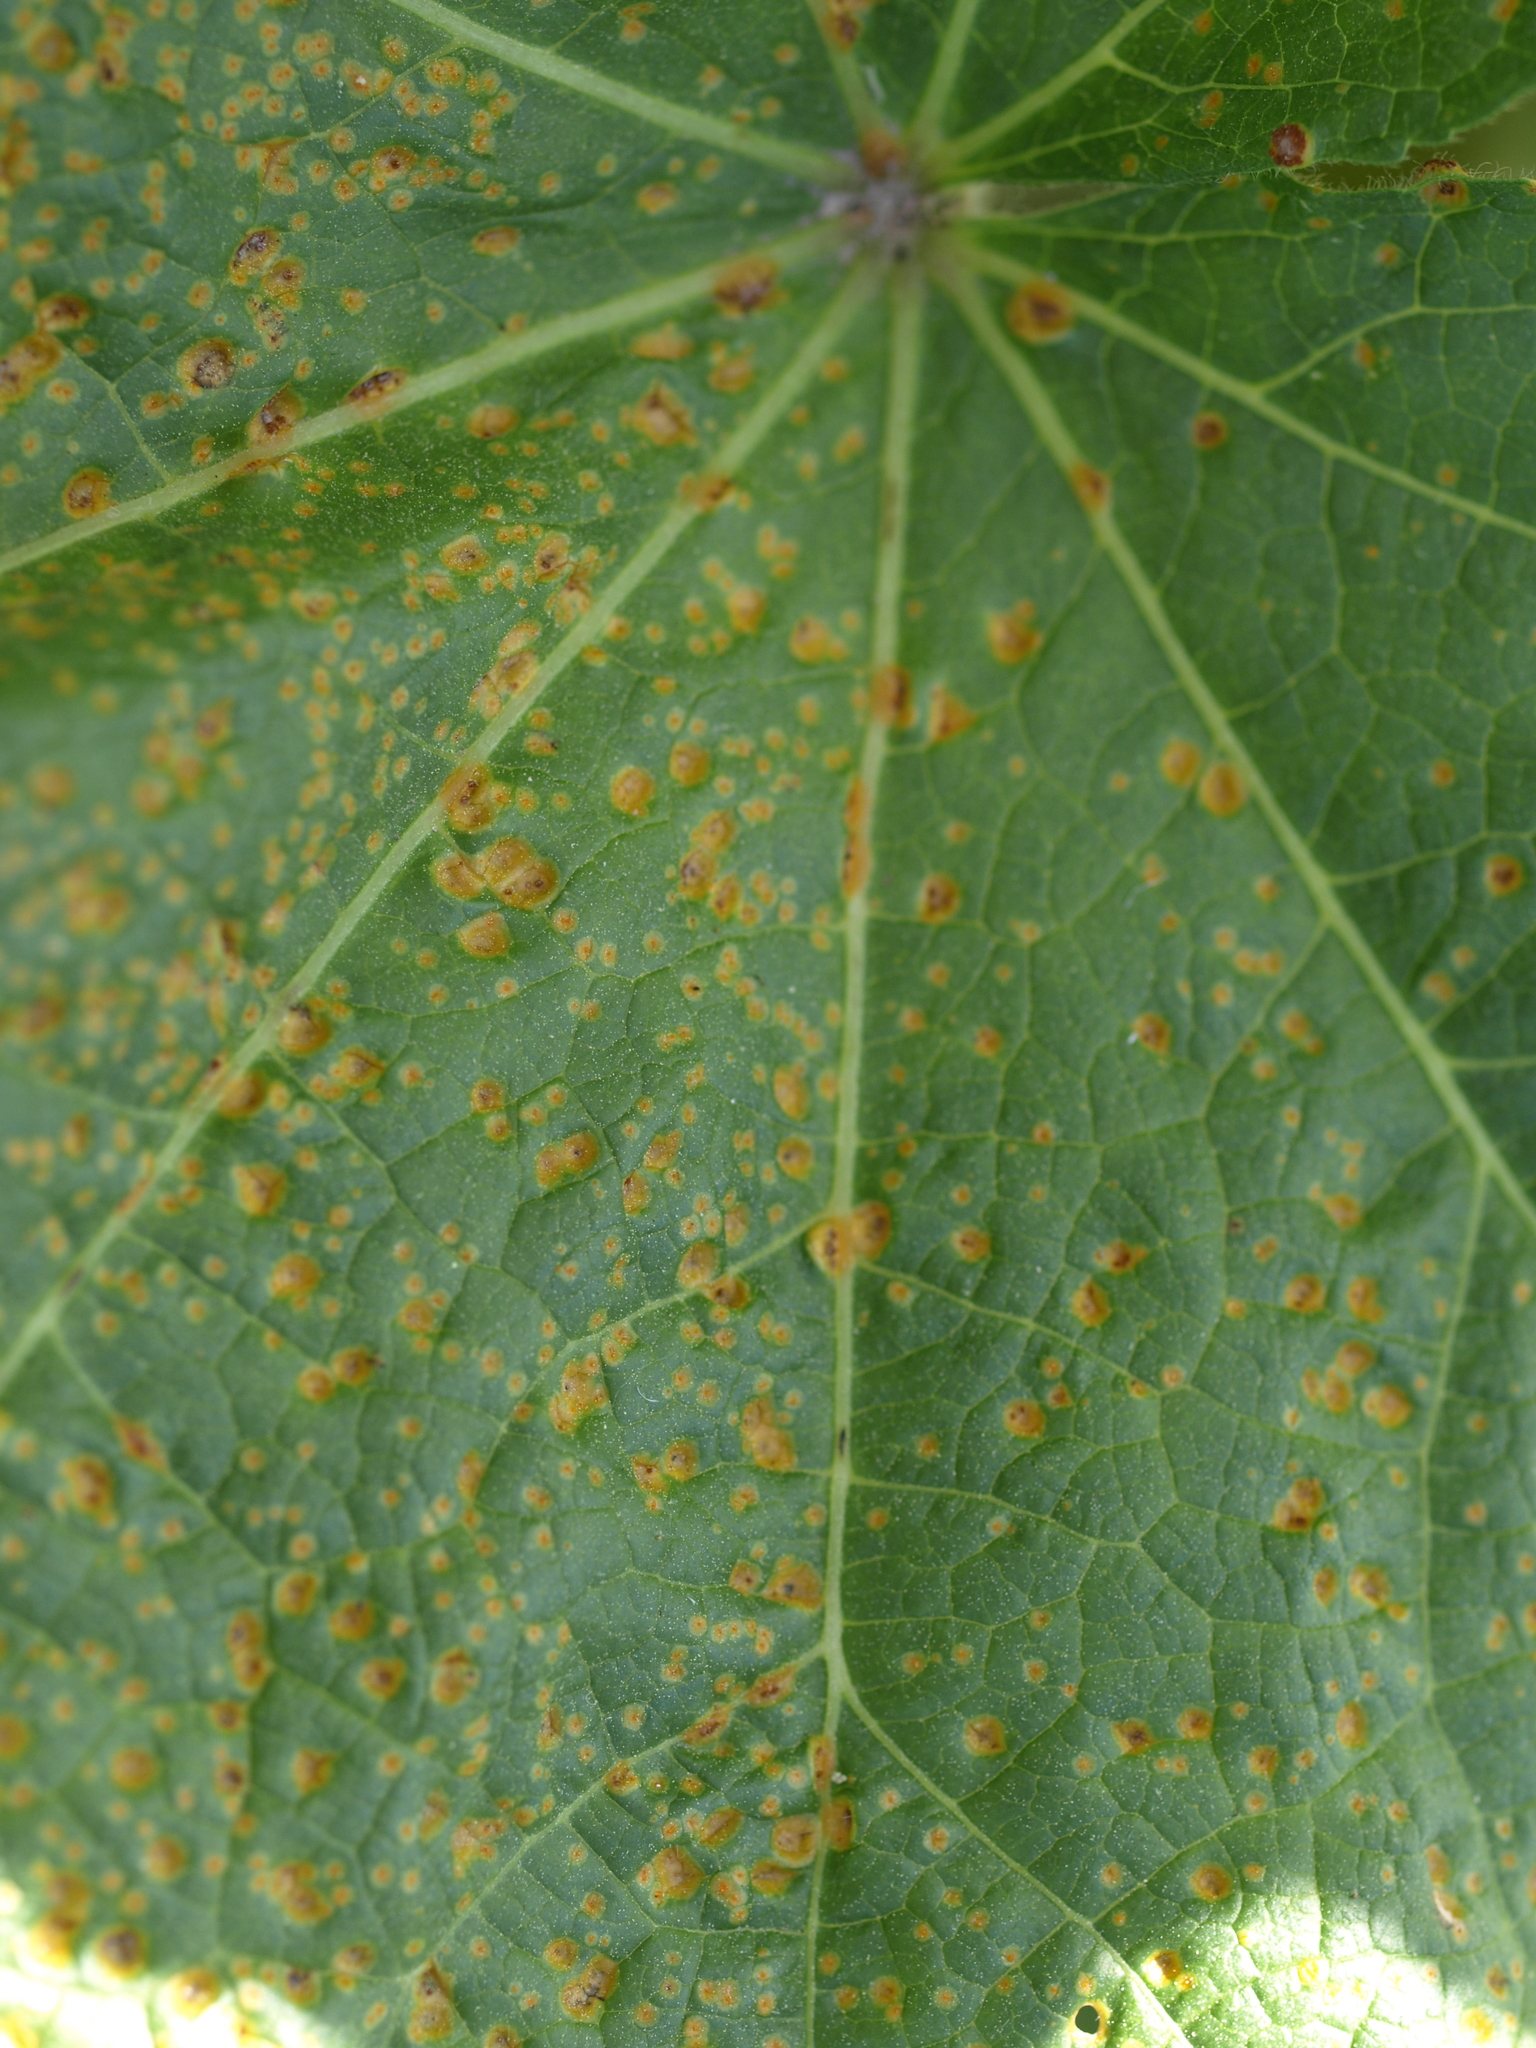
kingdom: Fungi
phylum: Basidiomycota
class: Pucciniomycetes
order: Pucciniales
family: Pucciniaceae
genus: Puccinia
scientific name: Puccinia malvacearum
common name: Hollyhock rust
